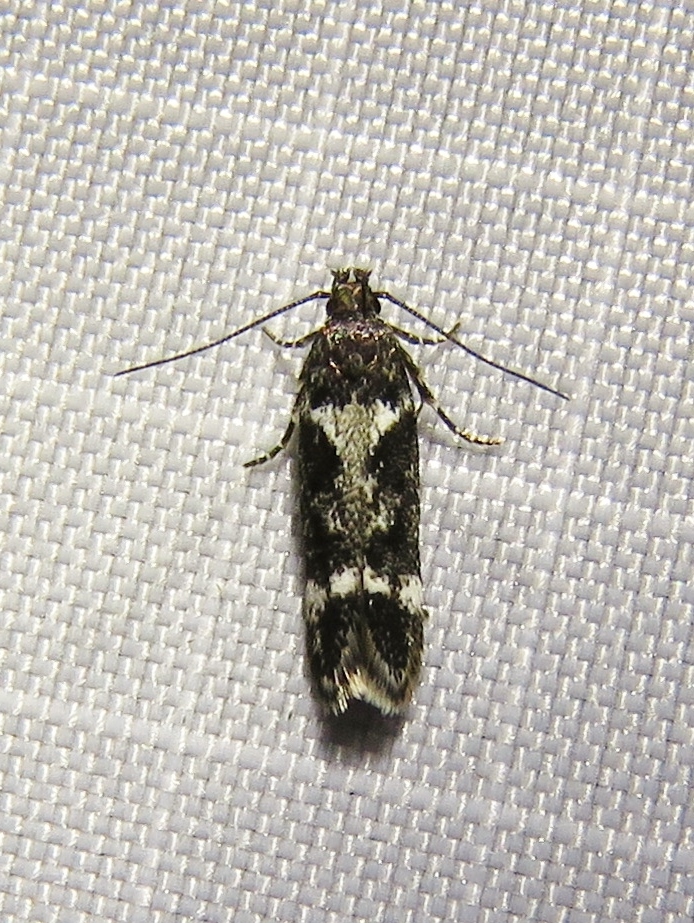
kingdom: Animalia
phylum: Arthropoda
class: Insecta
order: Lepidoptera
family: Gelechiidae
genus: Caryocolum
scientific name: Caryocolum vicinella
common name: Coast groundling
